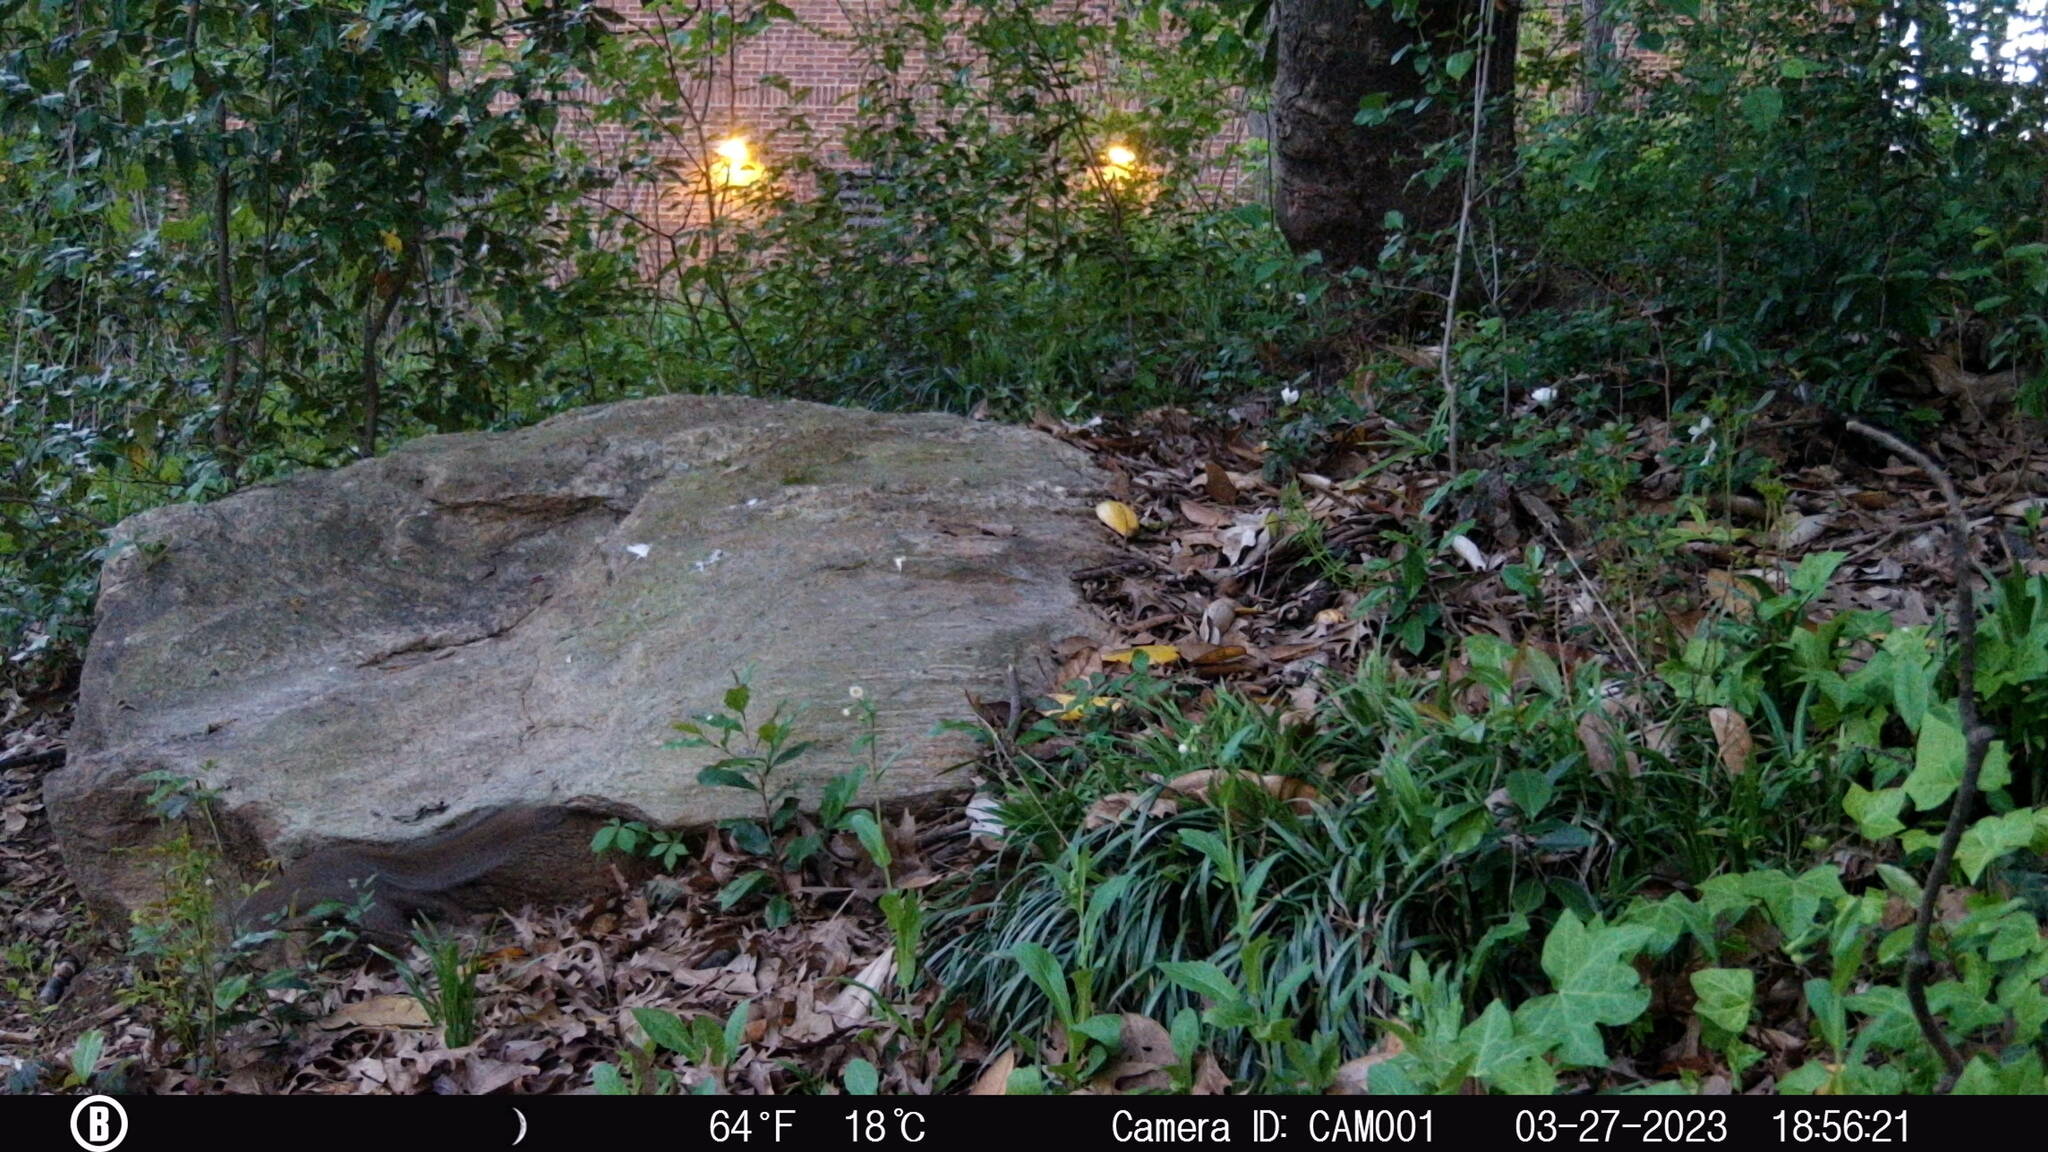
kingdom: Animalia
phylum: Chordata
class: Mammalia
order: Rodentia
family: Sciuridae
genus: Sciurus
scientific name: Sciurus carolinensis
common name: Eastern gray squirrel
